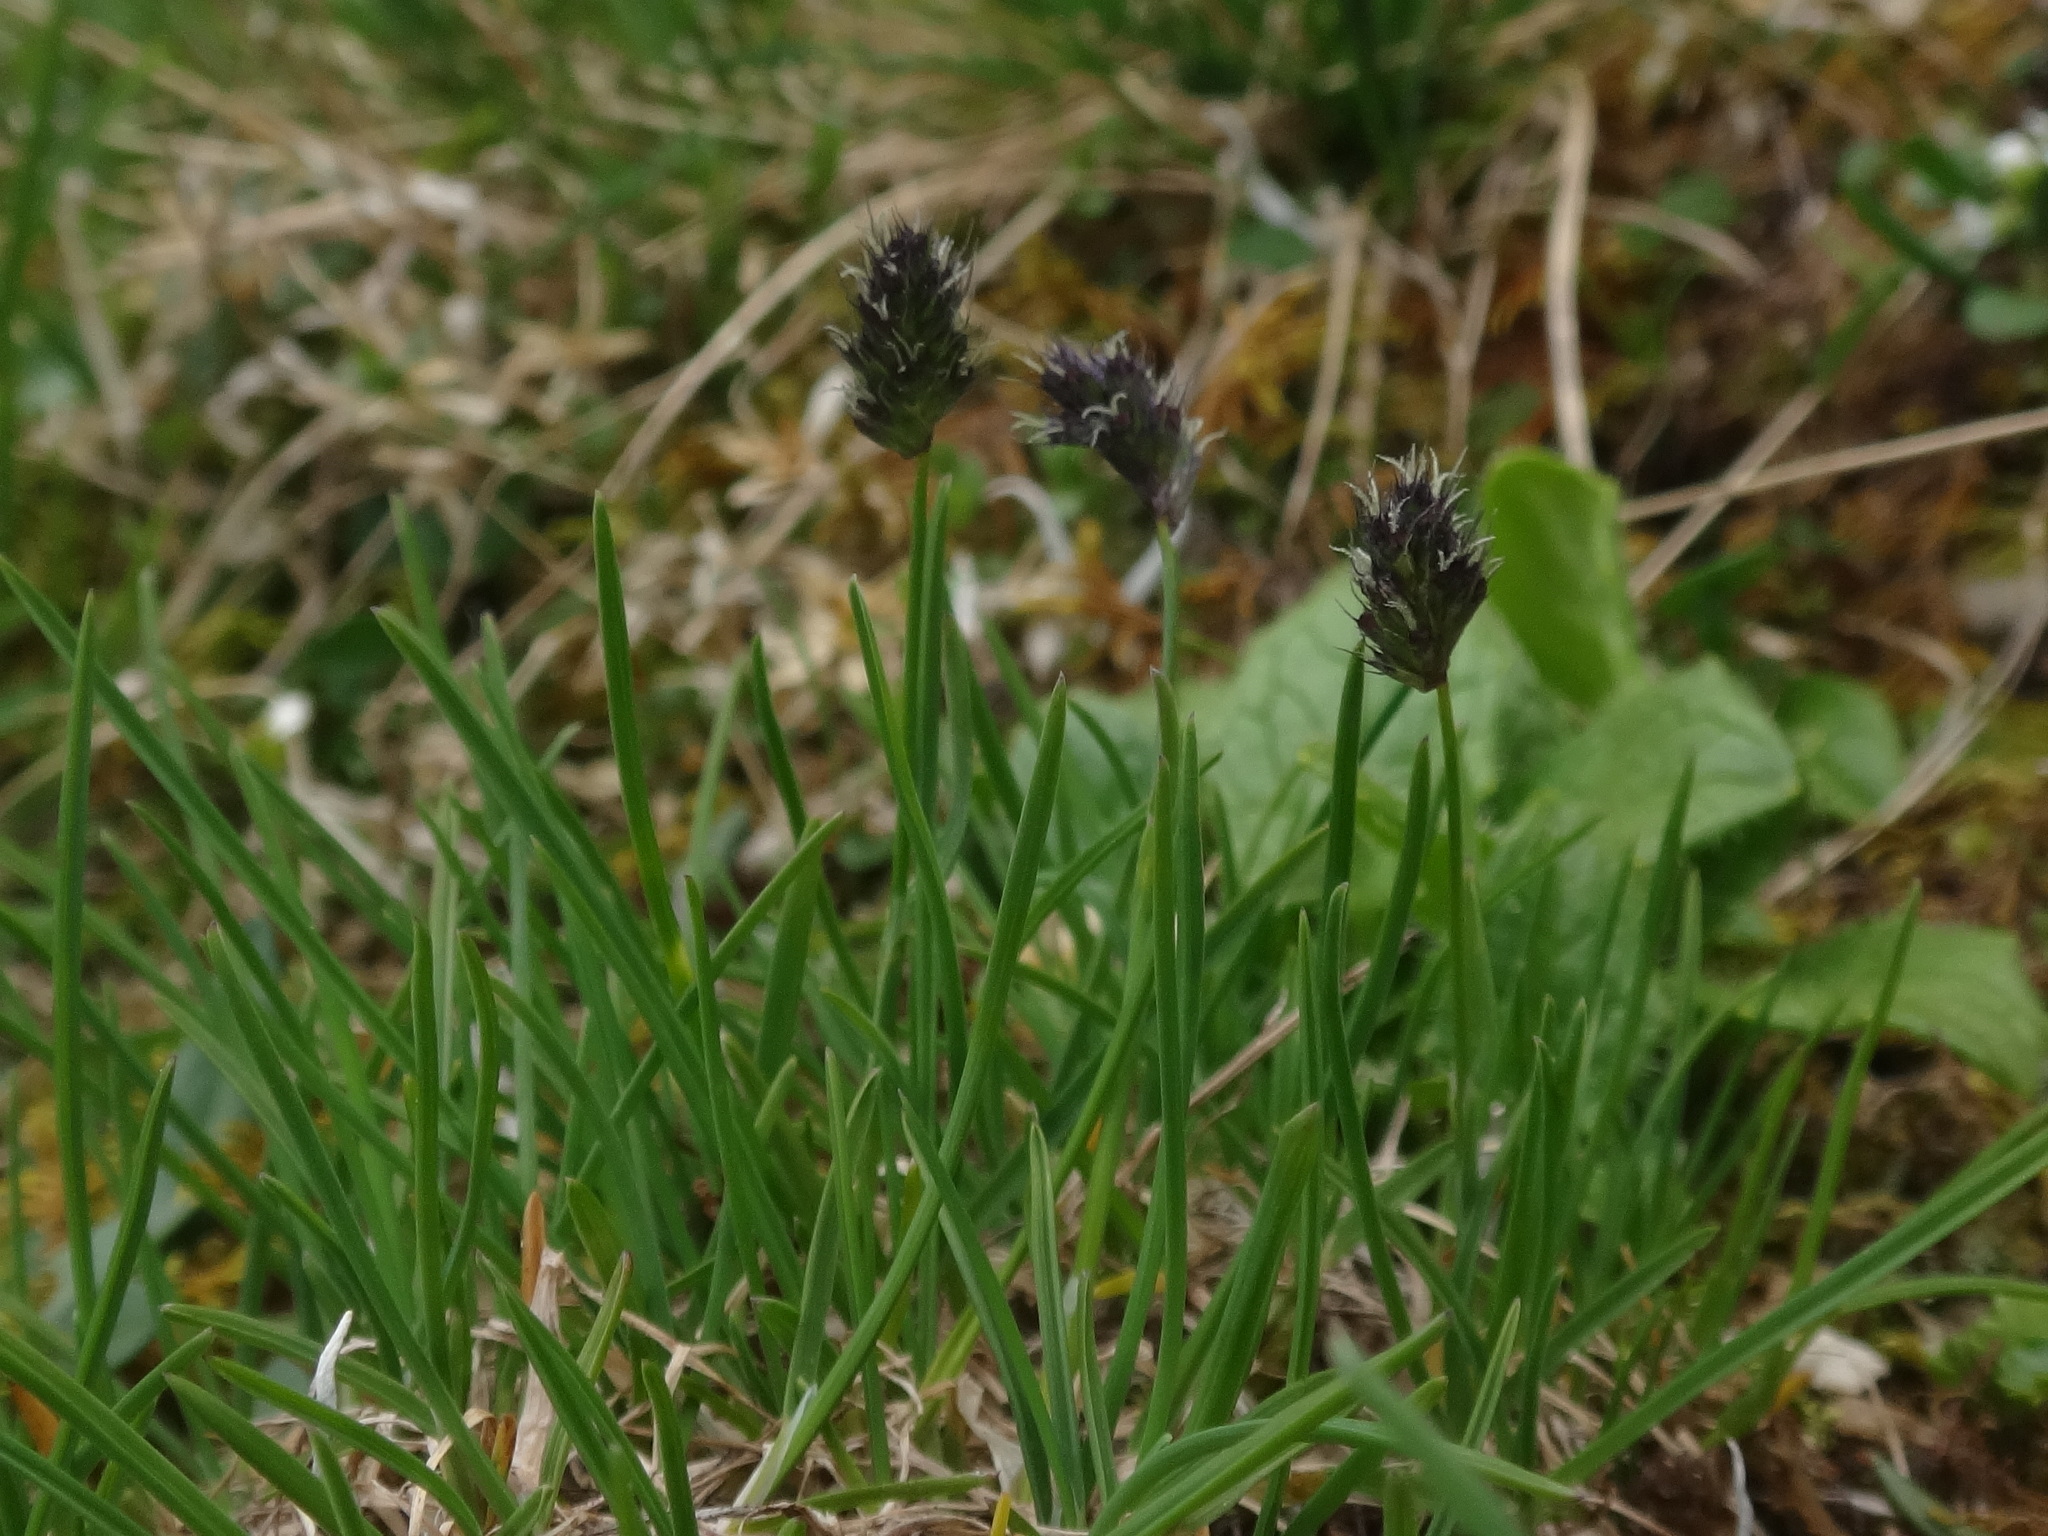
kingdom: Plantae
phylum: Tracheophyta
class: Liliopsida
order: Poales
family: Poaceae
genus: Psilathera
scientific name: Psilathera ovata
